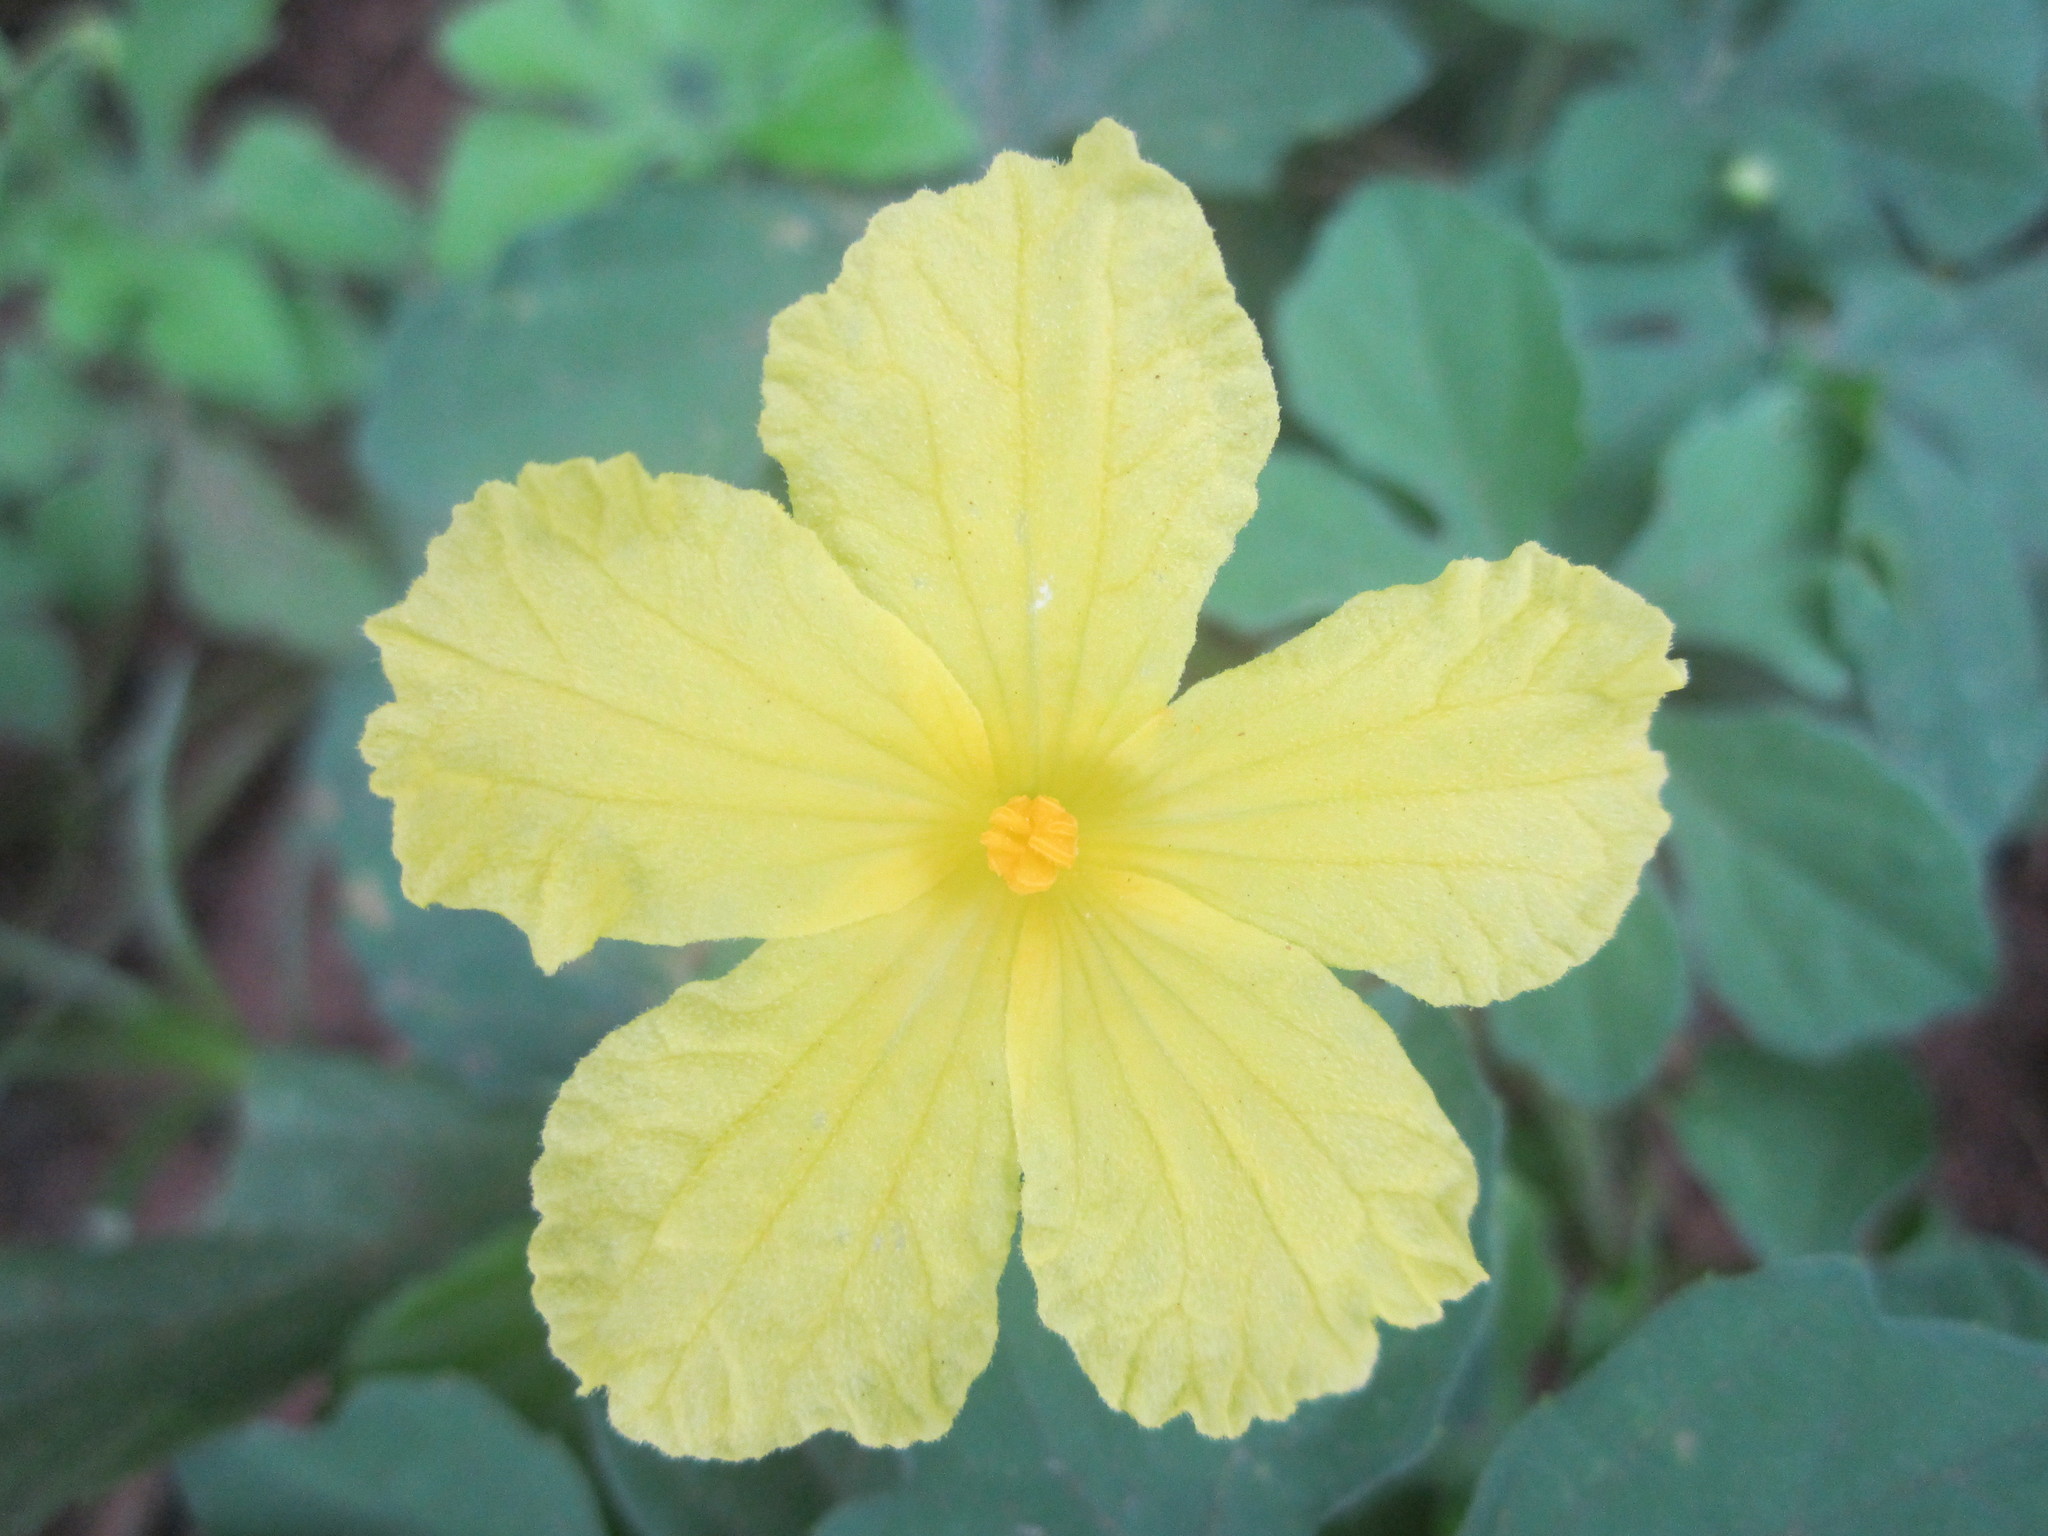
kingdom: Plantae
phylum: Tracheophyta
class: Magnoliopsida
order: Cucurbitales
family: Cucurbitaceae
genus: Momordica
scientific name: Momordica charantia
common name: Balsampear
